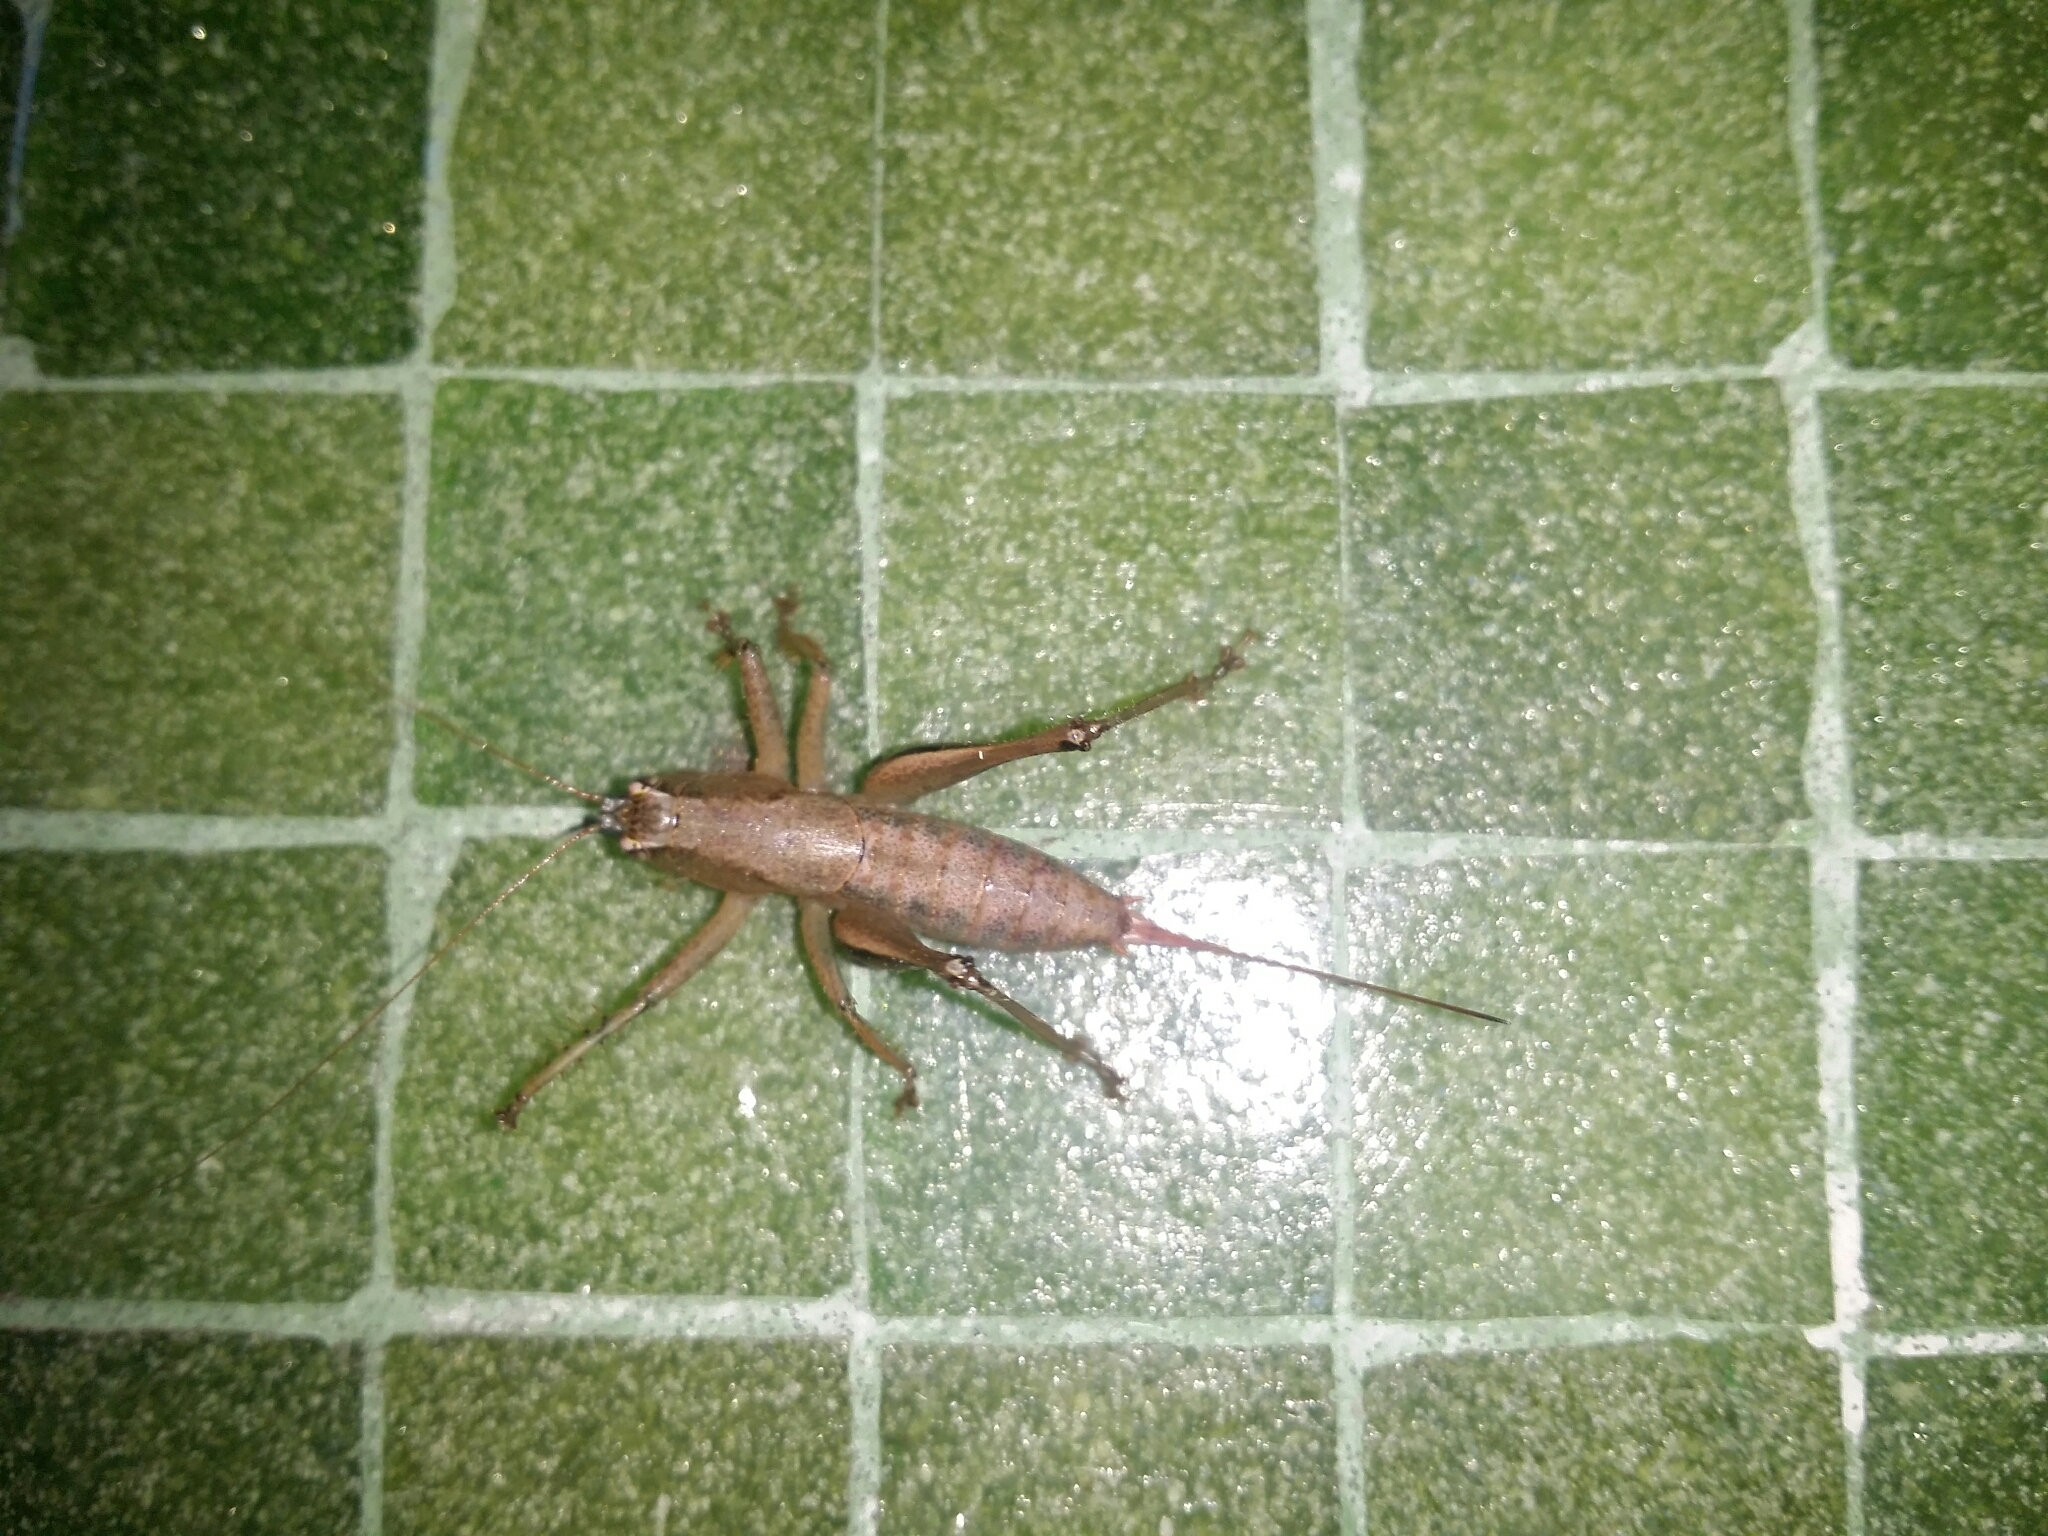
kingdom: Animalia
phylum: Arthropoda
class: Insecta
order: Orthoptera
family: Tettigoniidae
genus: Requena
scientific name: Requena verticalis
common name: Common western requena
